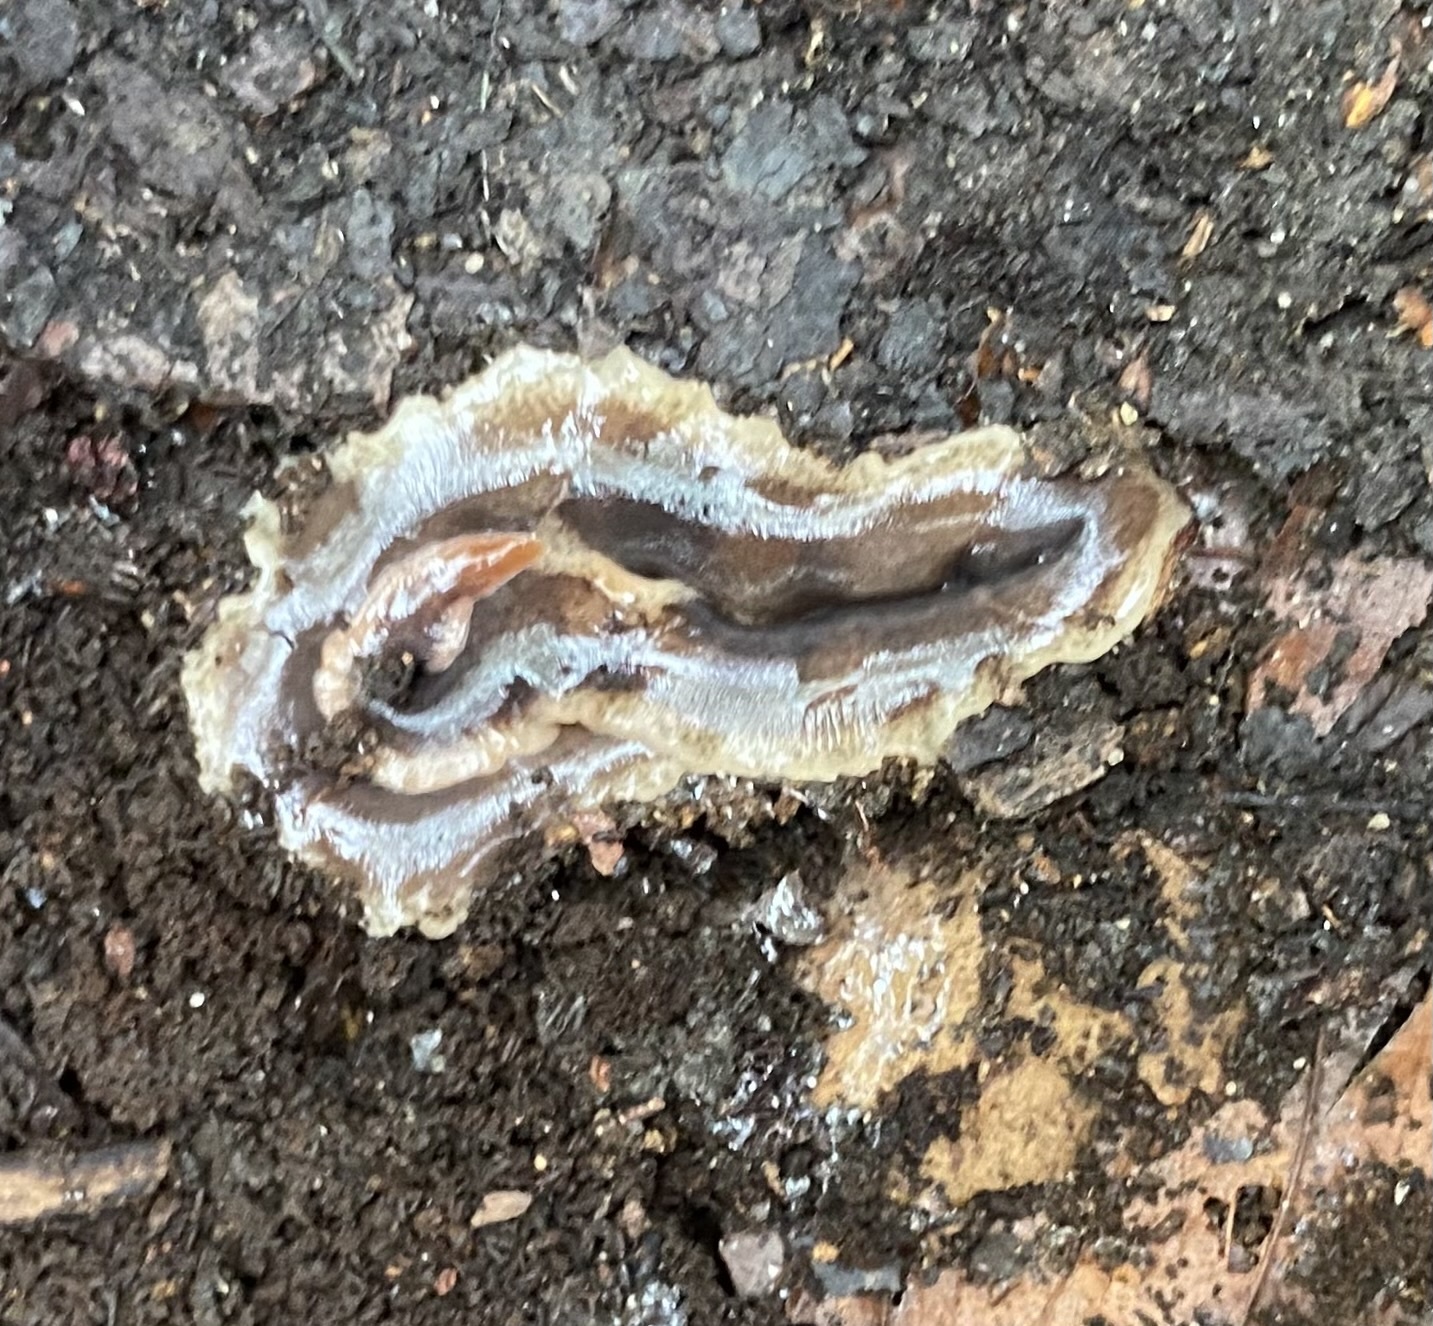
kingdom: Animalia
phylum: Platyhelminthes
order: Tricladida
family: Geoplanidae
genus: Arthurdendyus
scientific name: Arthurdendyus triangulatus
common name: New zealand flatworm
